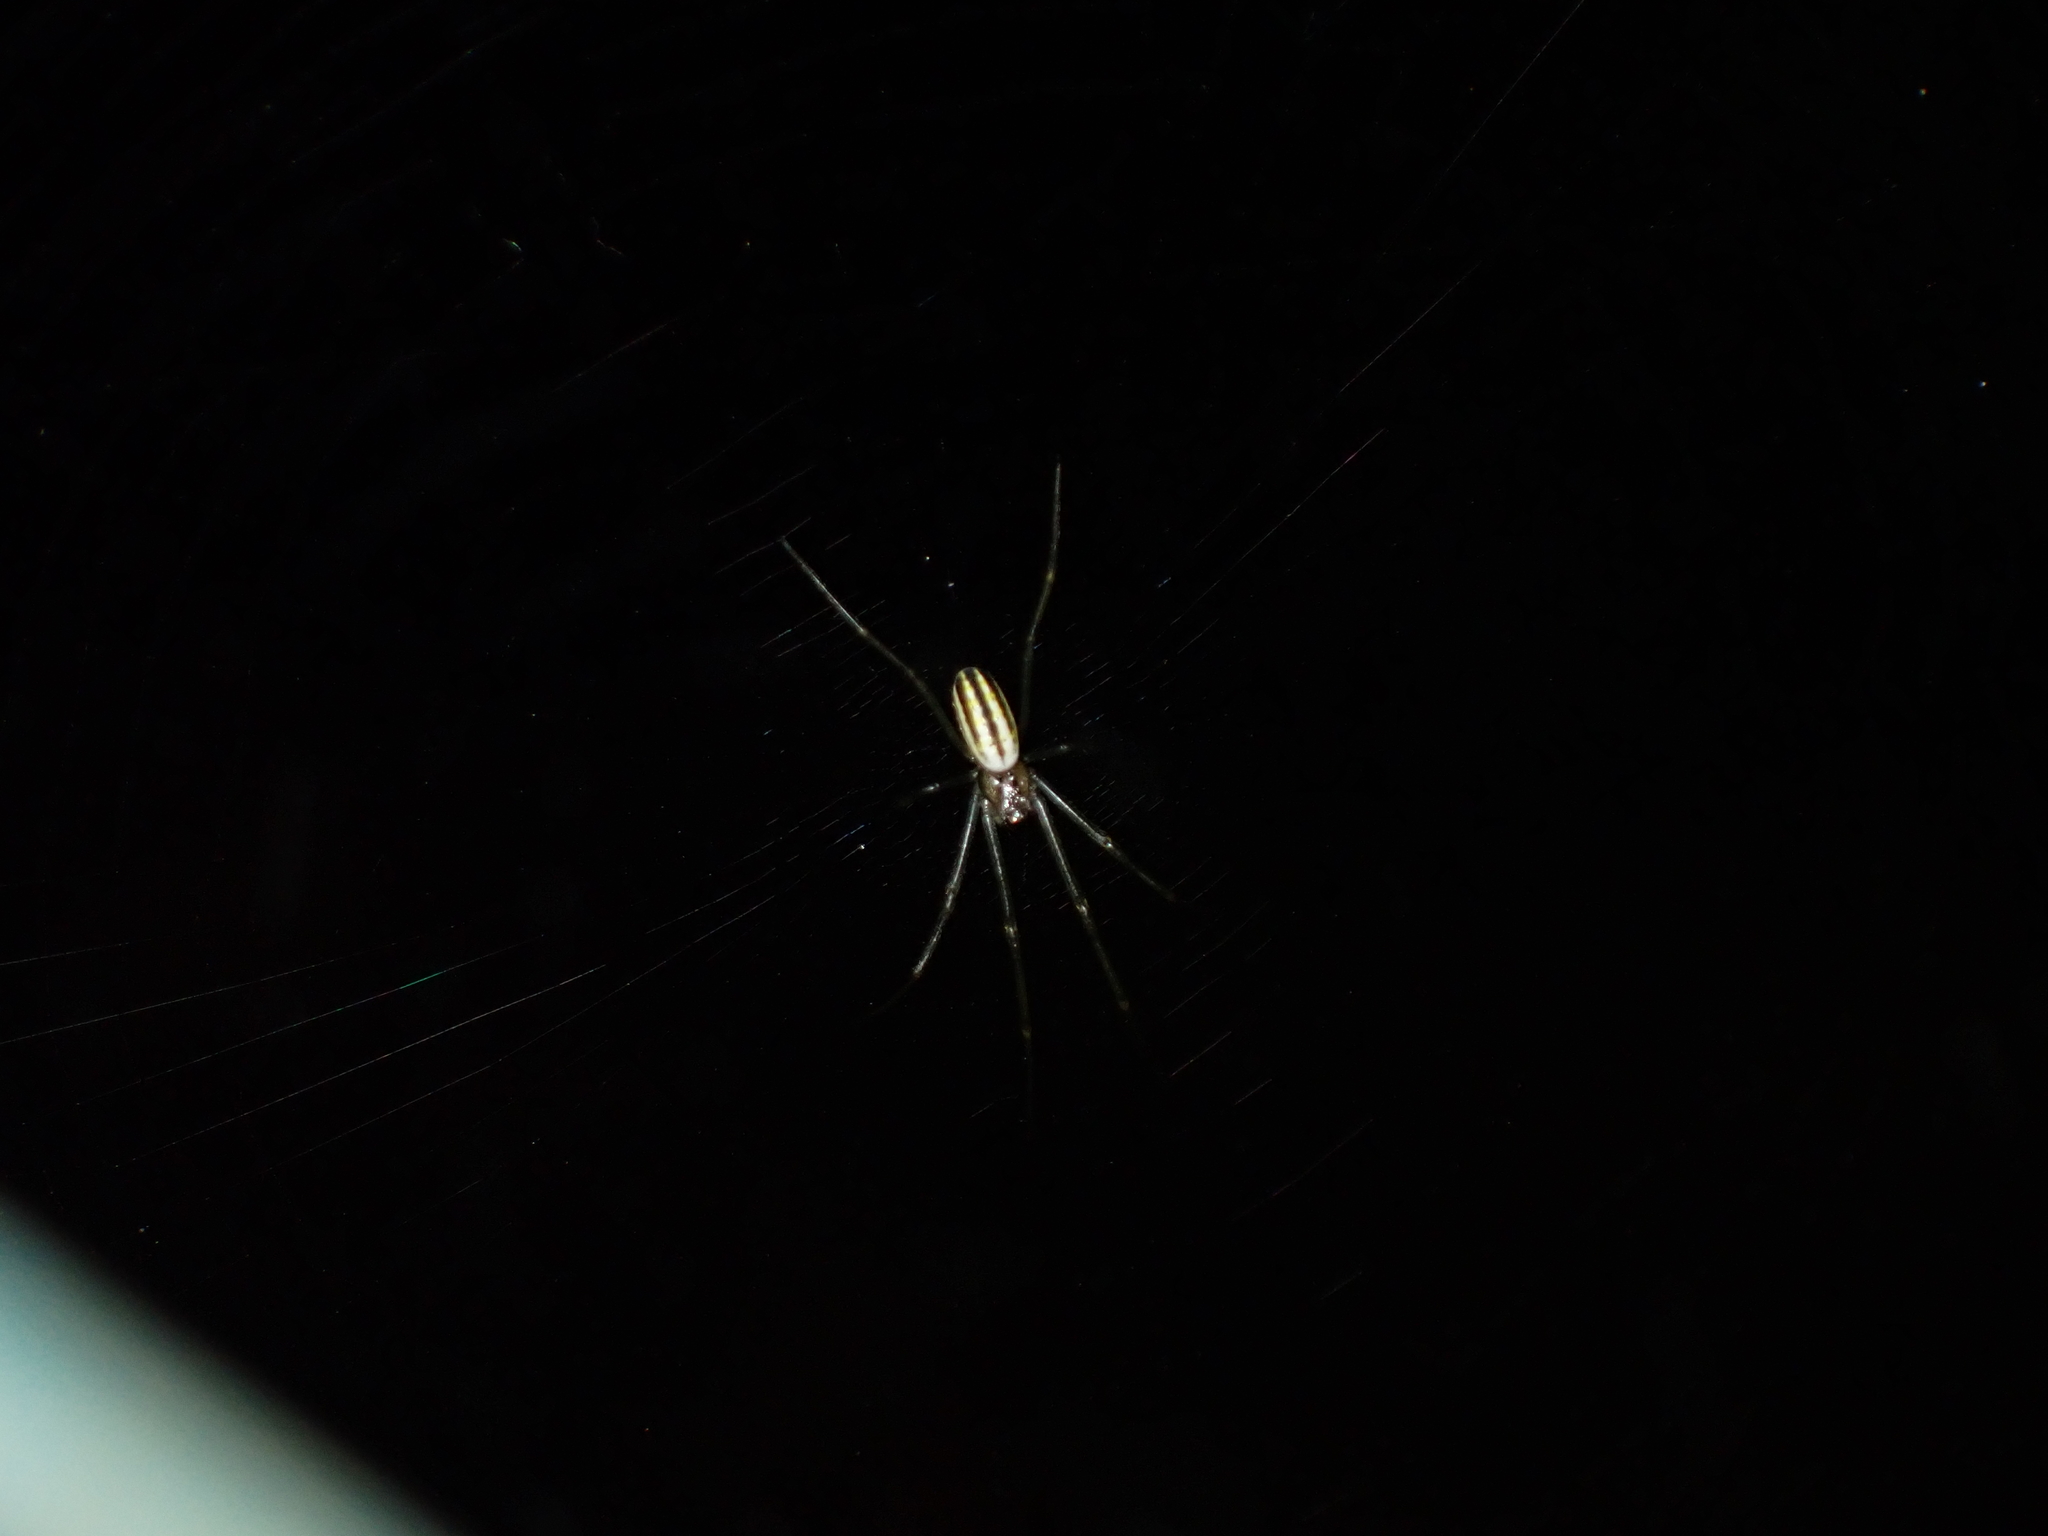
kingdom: Animalia
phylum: Arthropoda
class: Arachnida
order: Araneae
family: Araneidae
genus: Nephila
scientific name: Nephila pilipes
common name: Giant golden orb weaver
